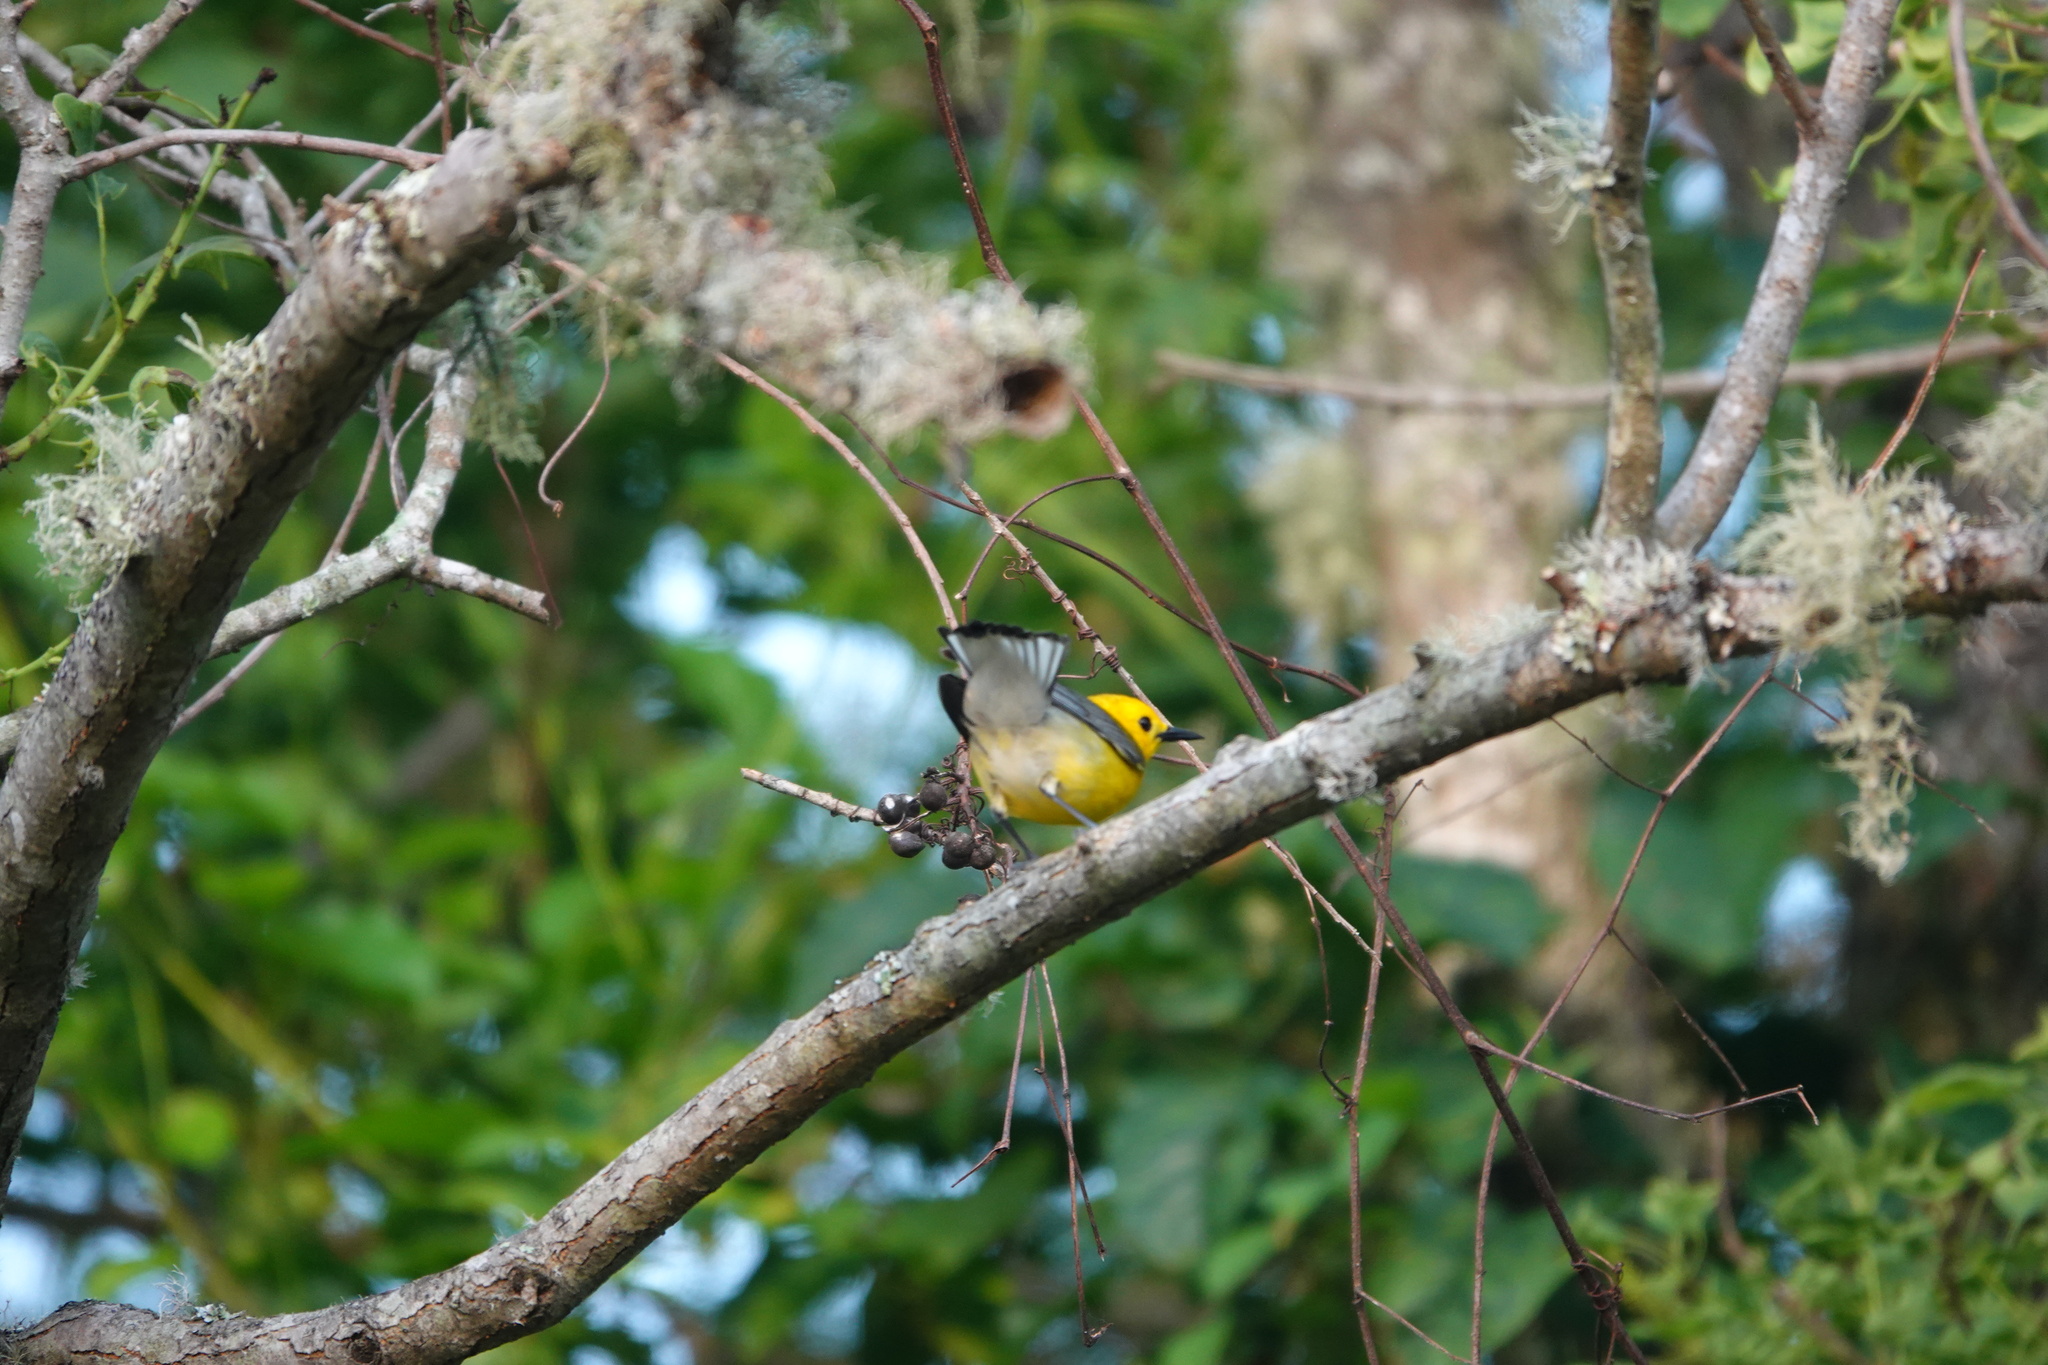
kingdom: Animalia
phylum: Chordata
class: Aves
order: Passeriformes
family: Parulidae
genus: Protonotaria
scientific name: Protonotaria citrea
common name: Prothonotary warbler
